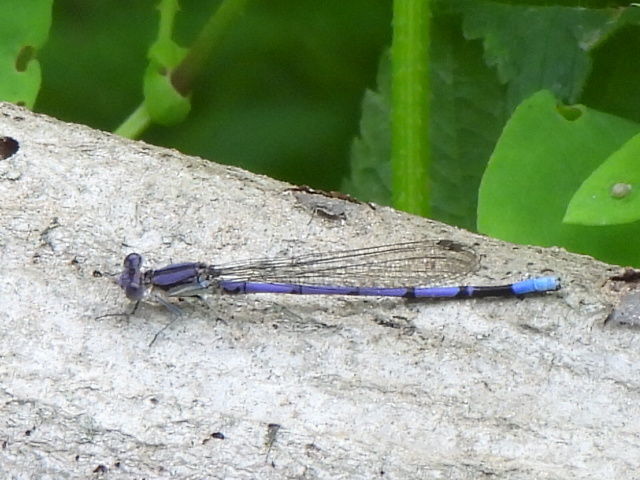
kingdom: Animalia
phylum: Arthropoda
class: Insecta
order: Odonata
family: Coenagrionidae
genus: Argia
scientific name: Argia fumipennis
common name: Variable dancer
